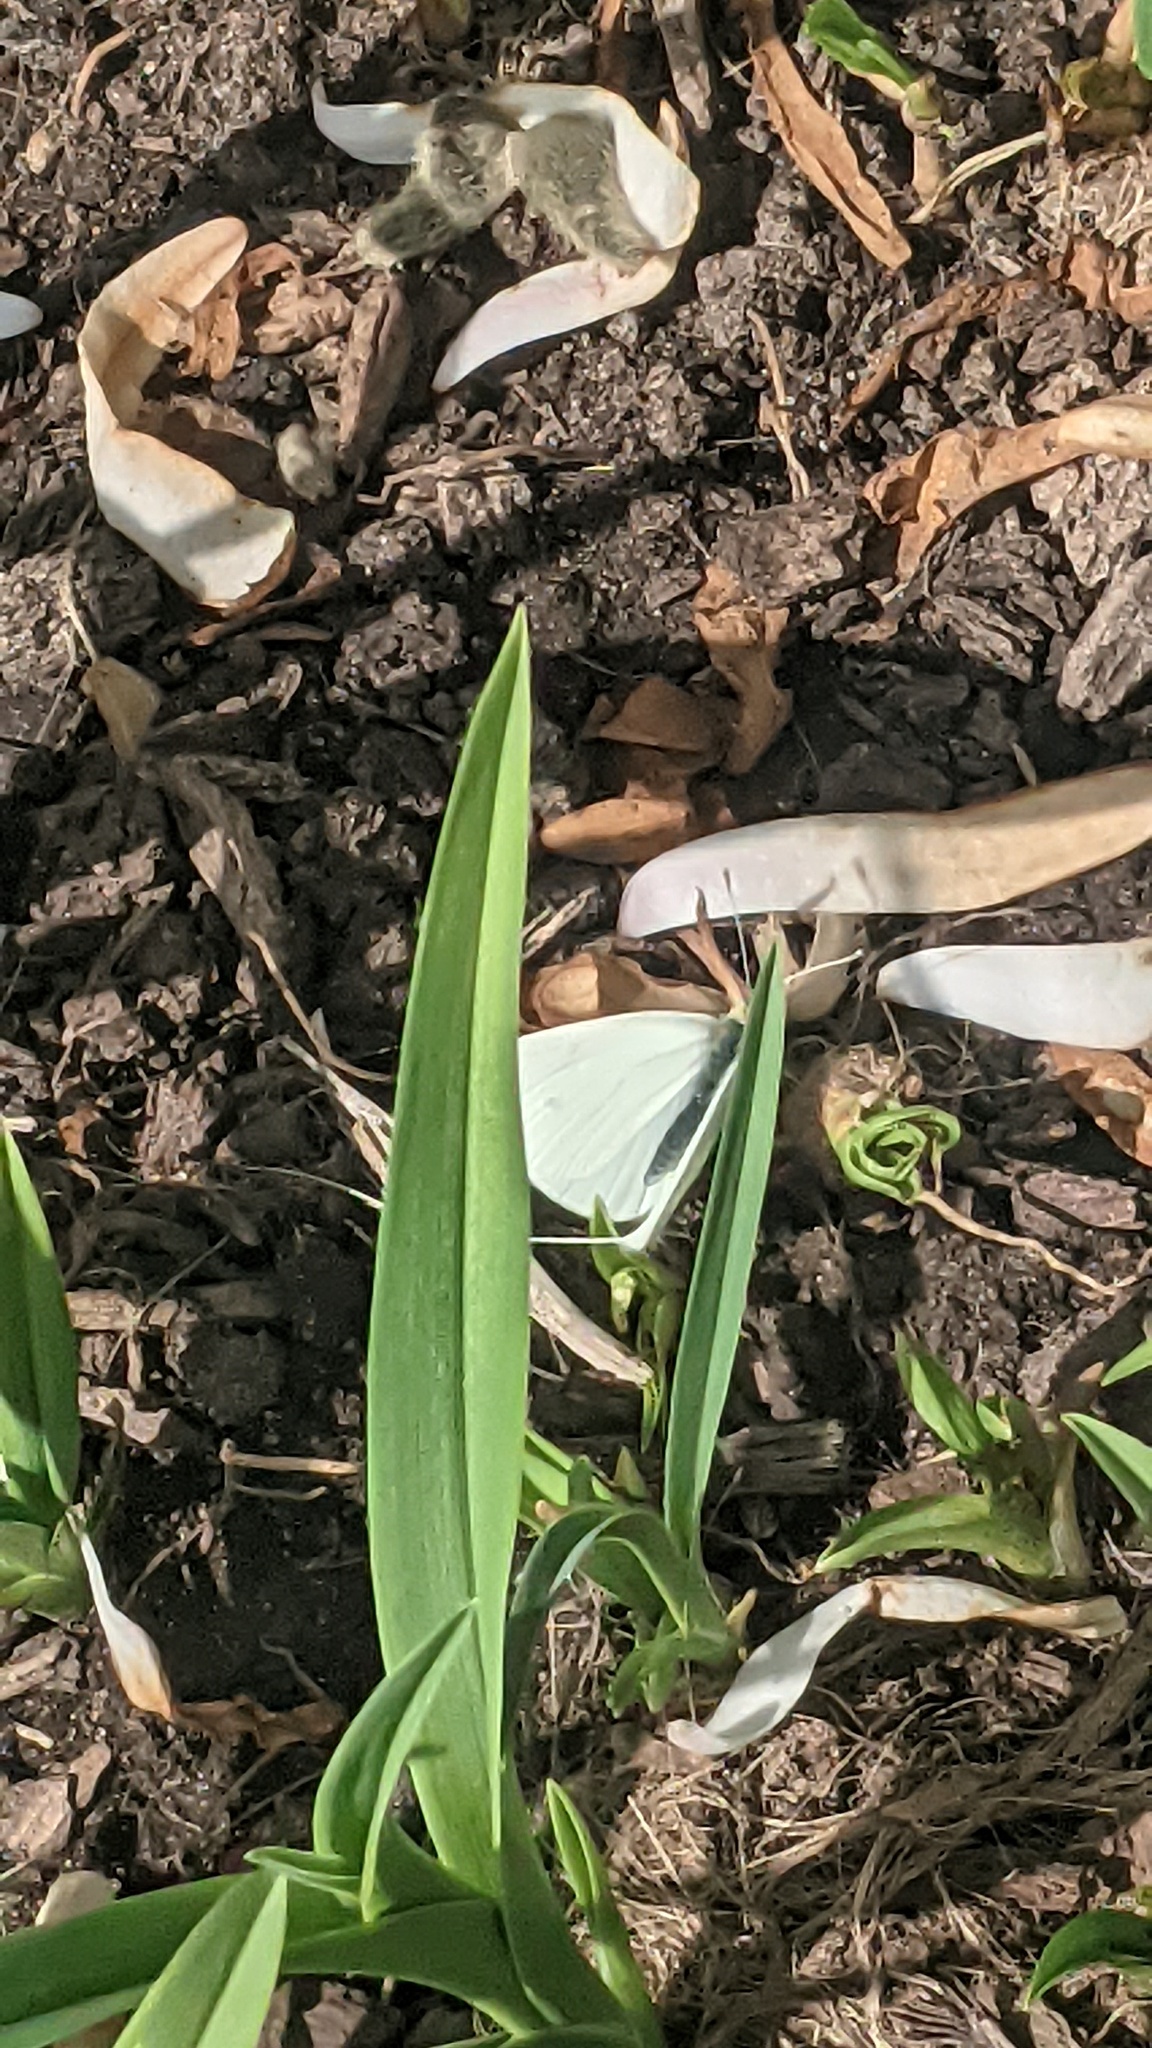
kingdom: Animalia
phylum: Arthropoda
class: Insecta
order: Lepidoptera
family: Pieridae
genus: Pieris
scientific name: Pieris rapae
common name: Small white
